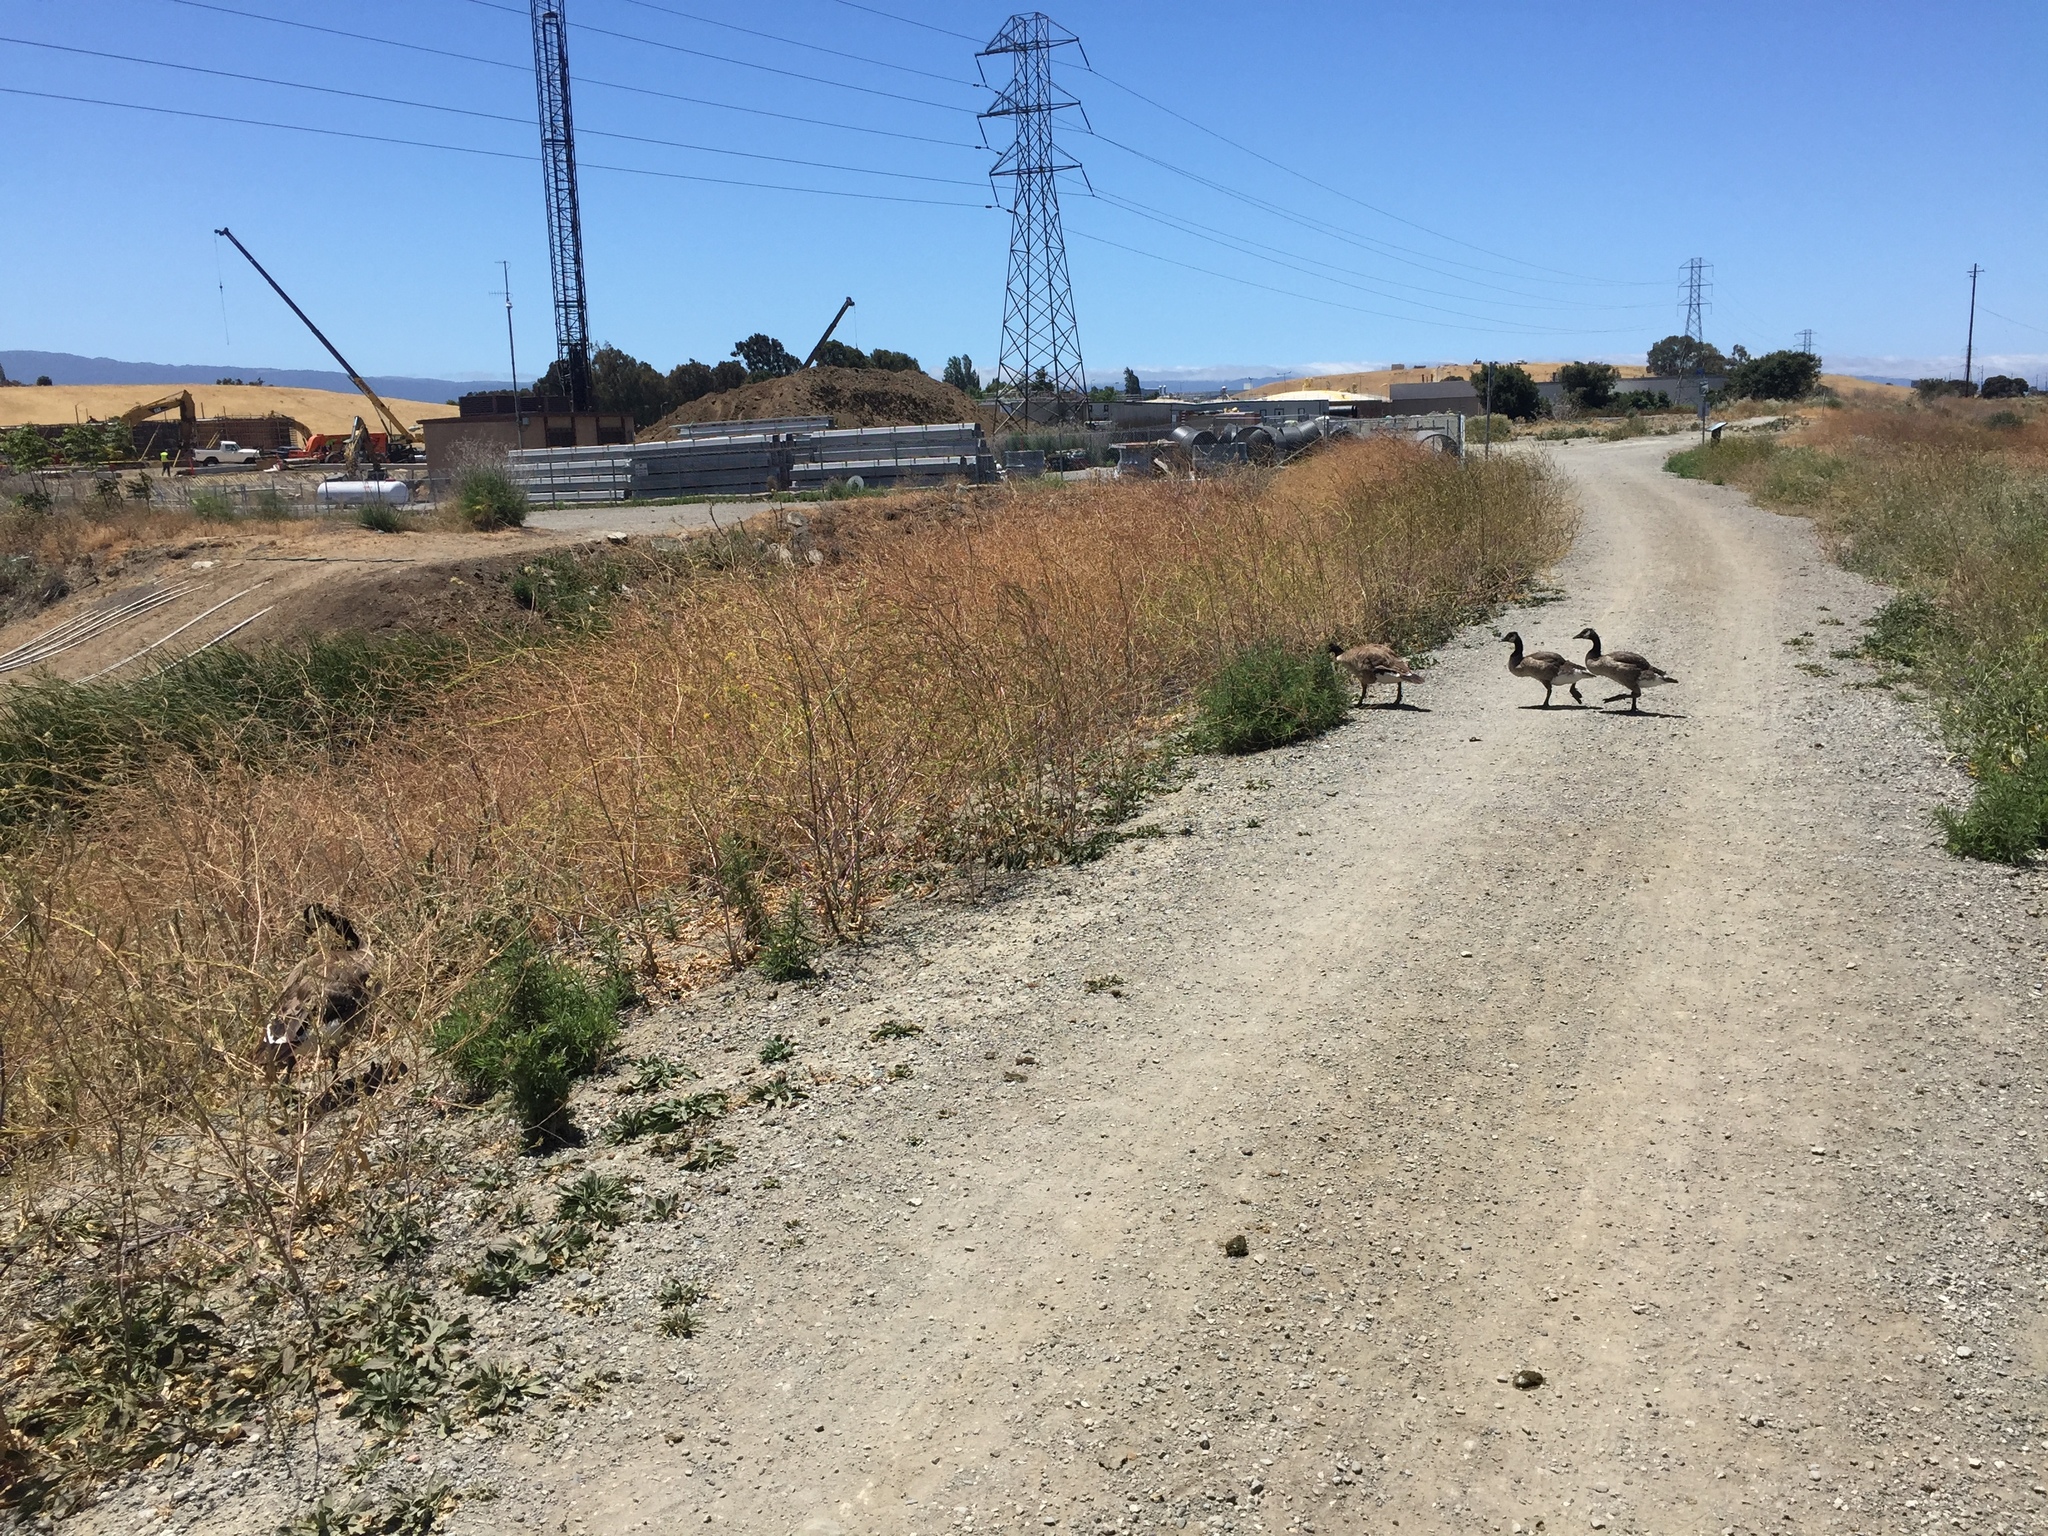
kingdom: Animalia
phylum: Chordata
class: Aves
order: Anseriformes
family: Anatidae
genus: Branta
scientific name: Branta canadensis
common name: Canada goose
